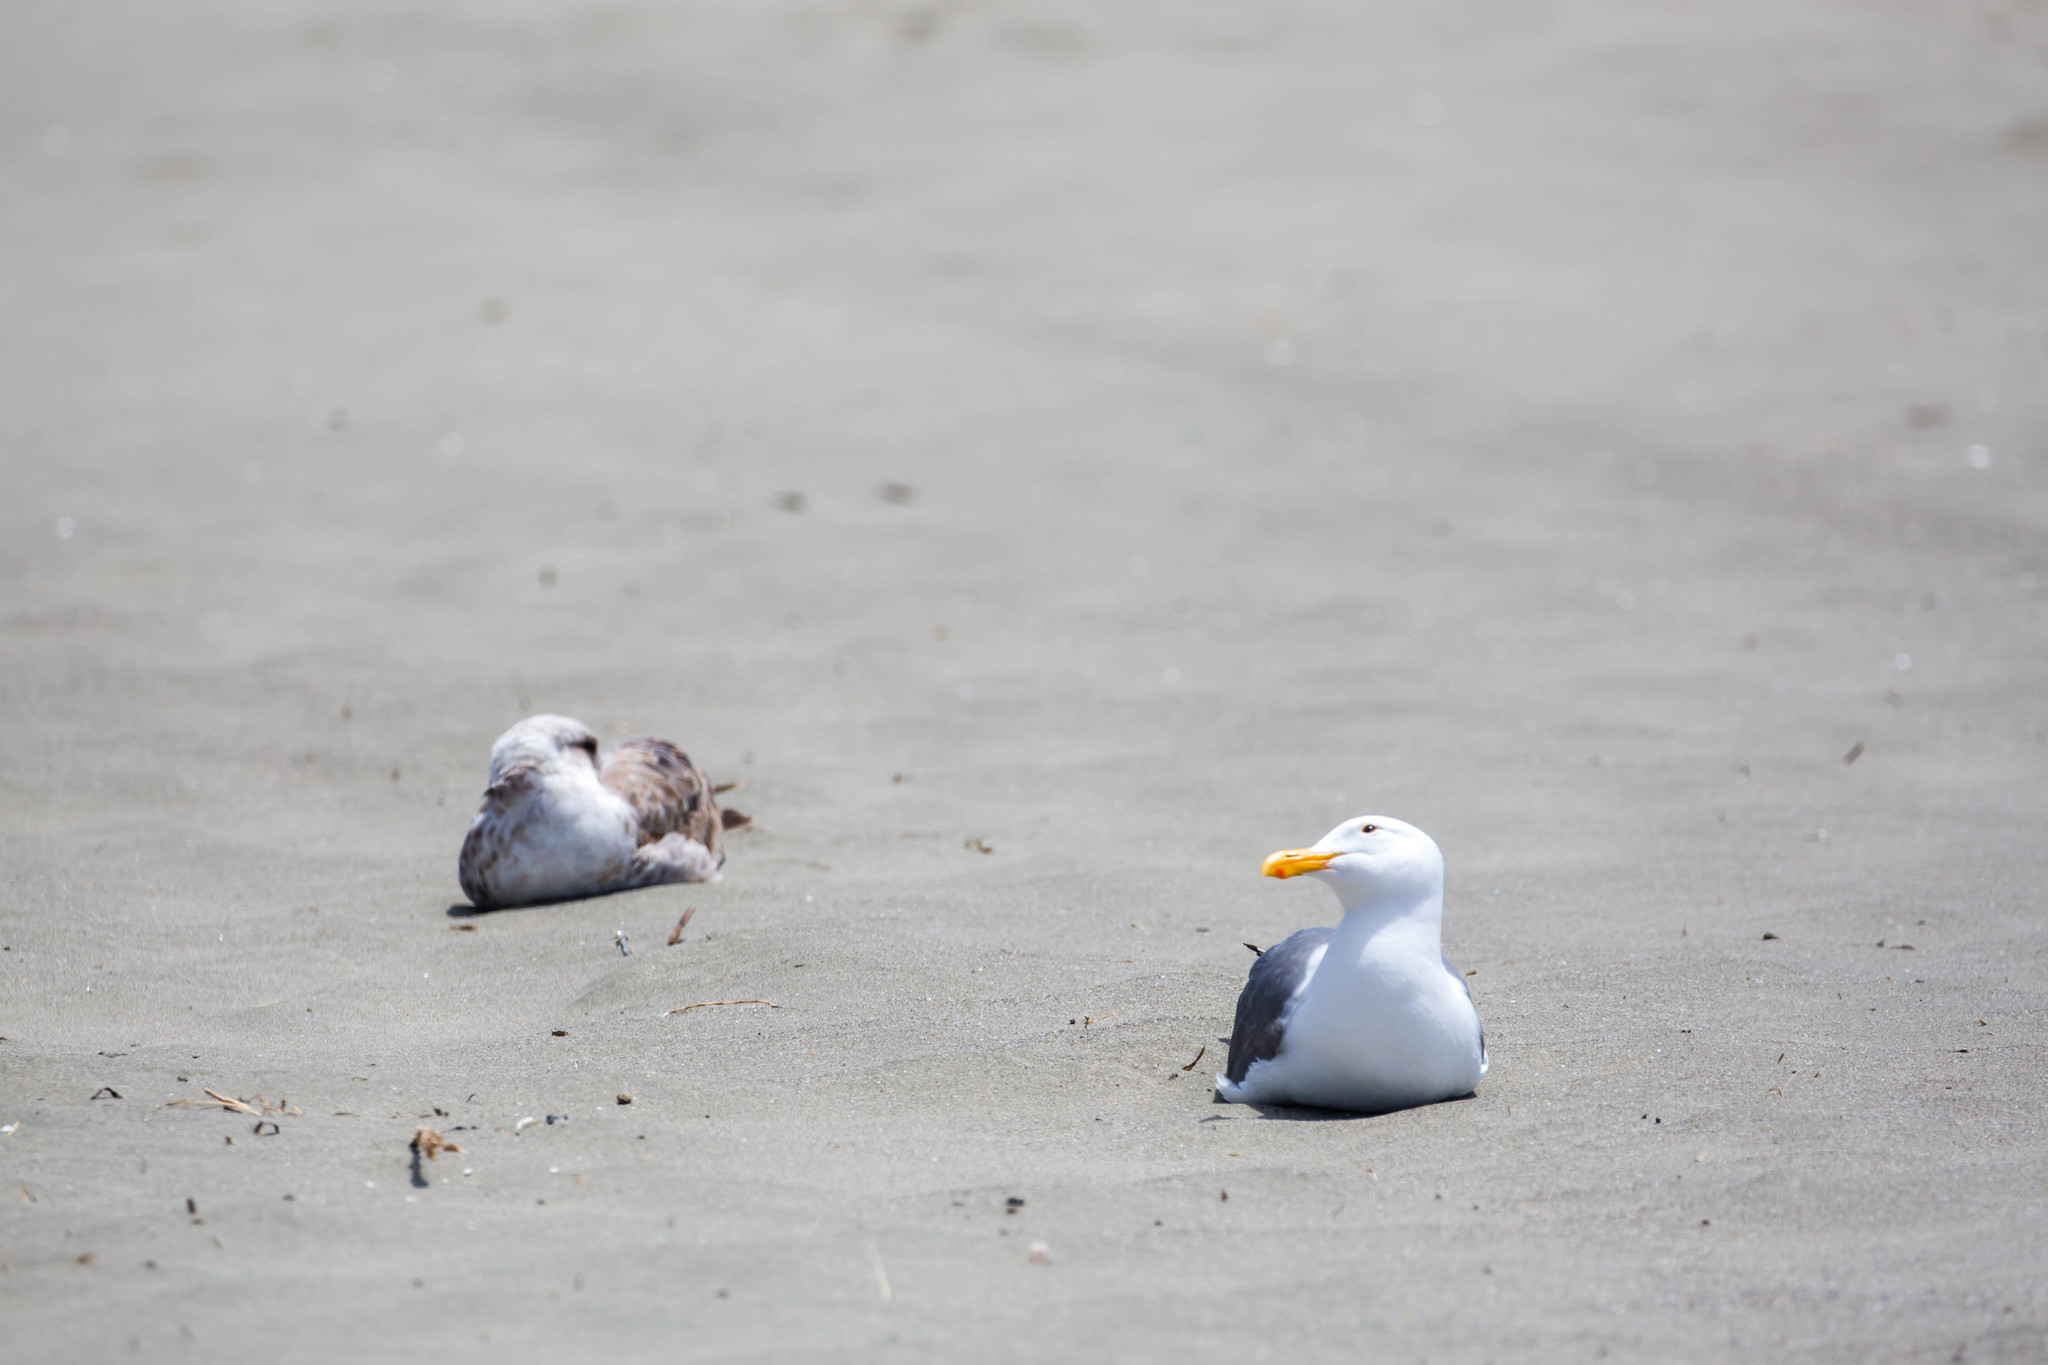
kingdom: Animalia
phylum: Chordata
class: Aves
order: Charadriiformes
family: Laridae
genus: Larus
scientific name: Larus occidentalis
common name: Western gull
